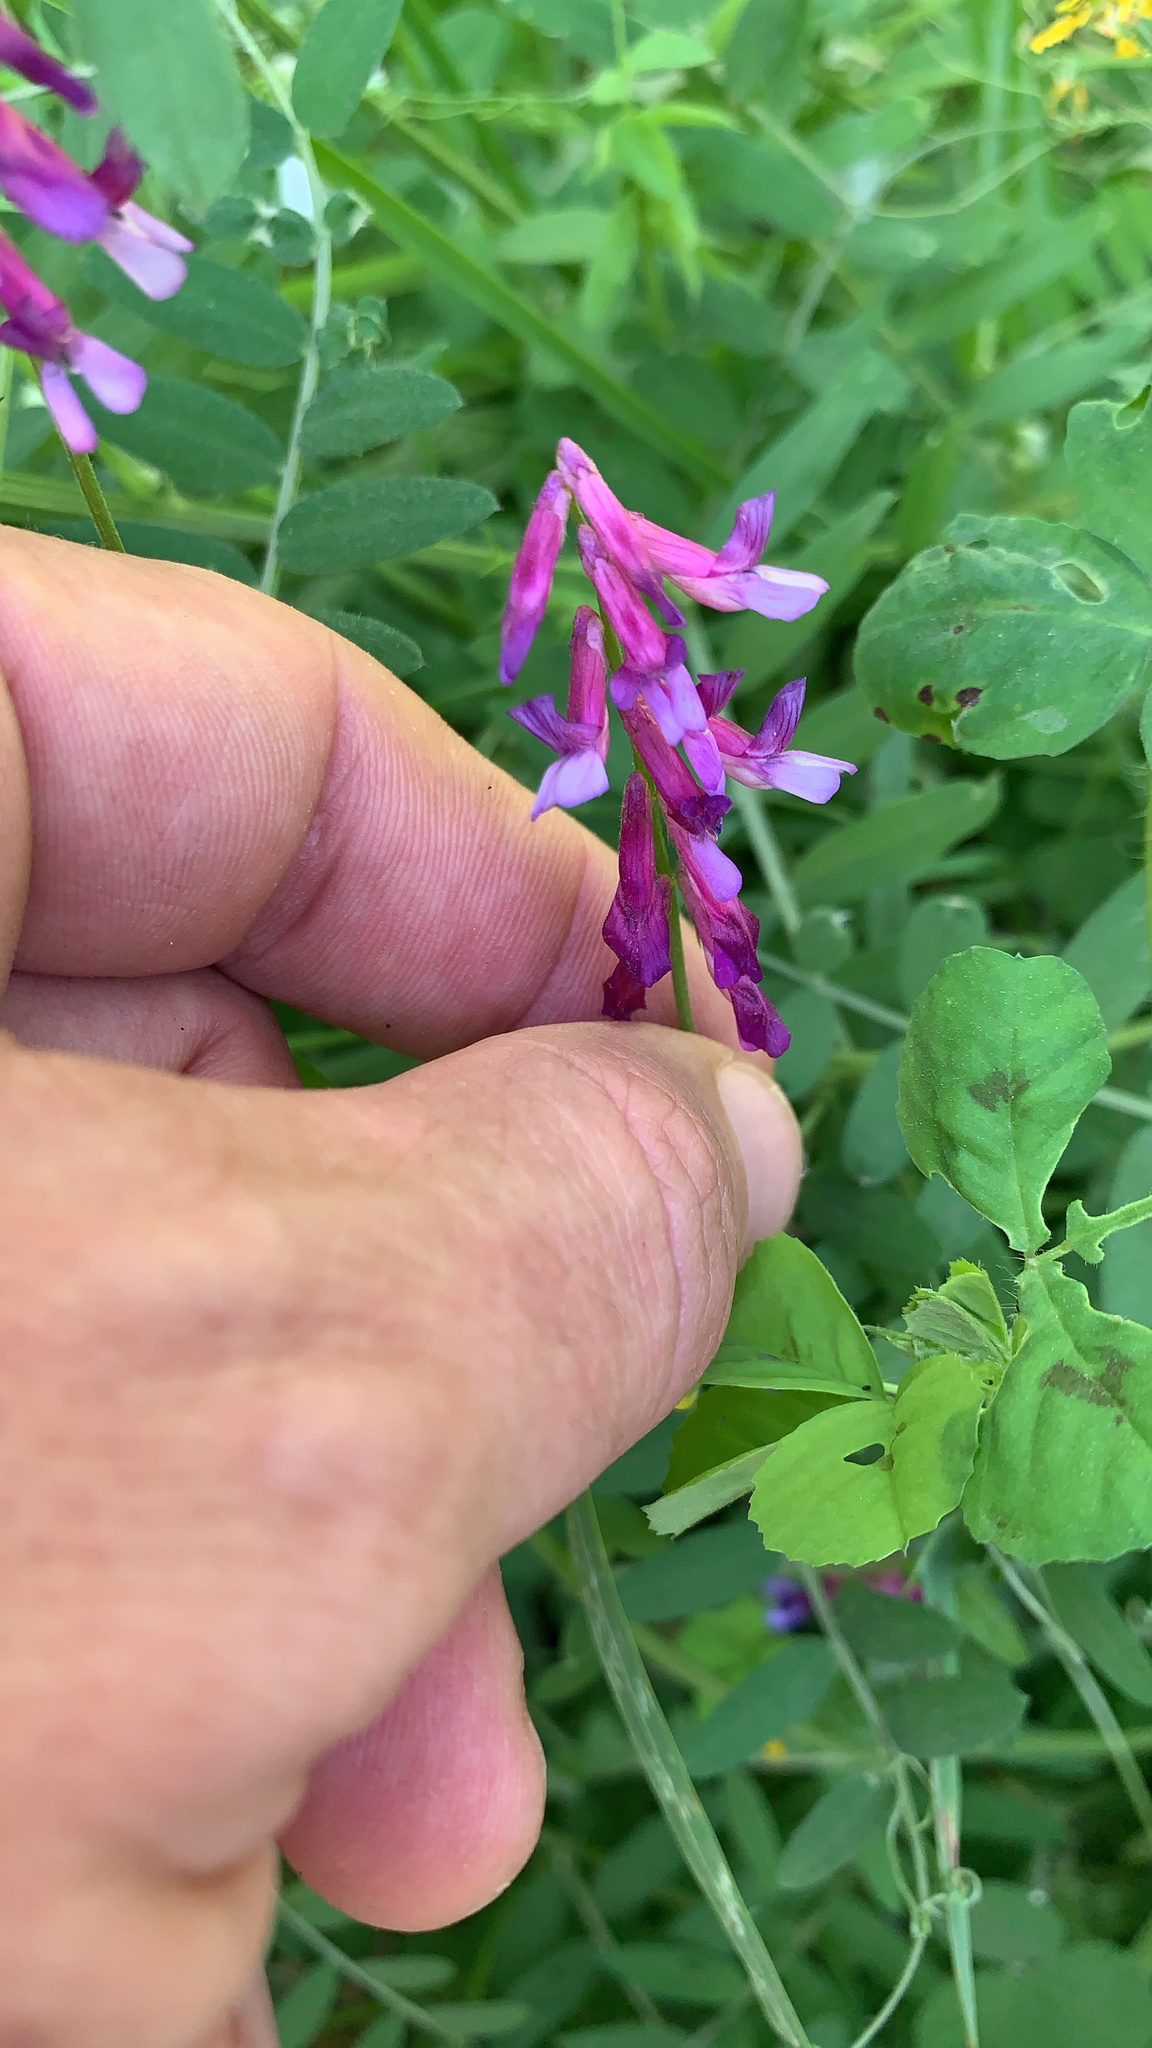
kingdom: Plantae
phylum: Tracheophyta
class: Magnoliopsida
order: Fabales
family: Fabaceae
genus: Vicia
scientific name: Vicia villosa
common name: Fodder vetch
